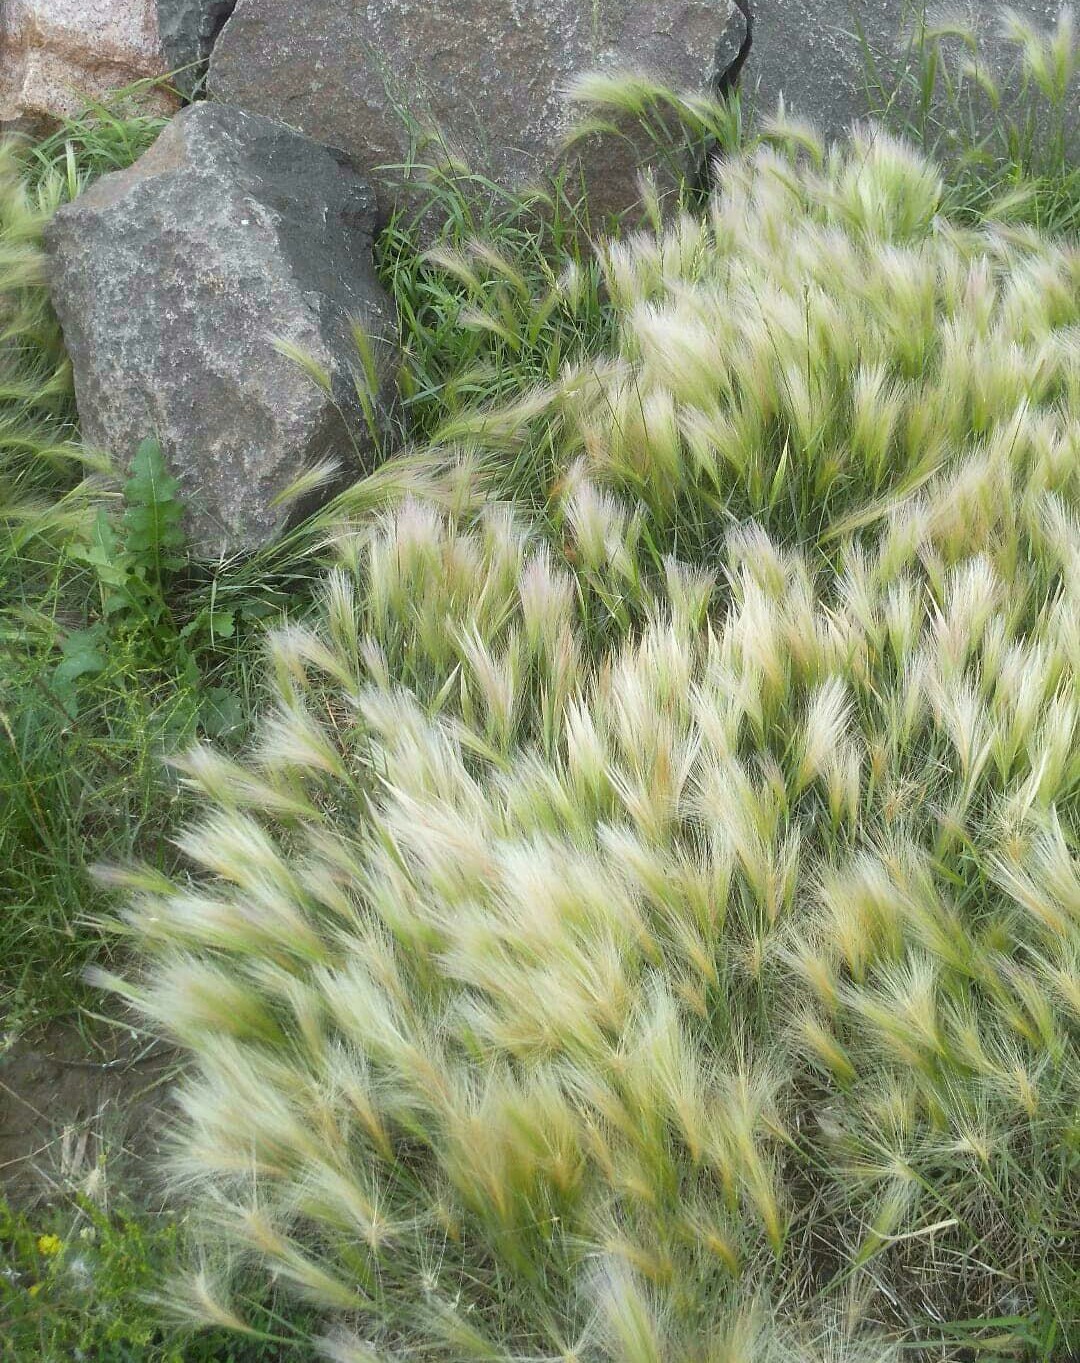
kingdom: Plantae
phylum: Tracheophyta
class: Liliopsida
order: Poales
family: Poaceae
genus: Hordeum
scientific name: Hordeum jubatum
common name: Foxtail barley
